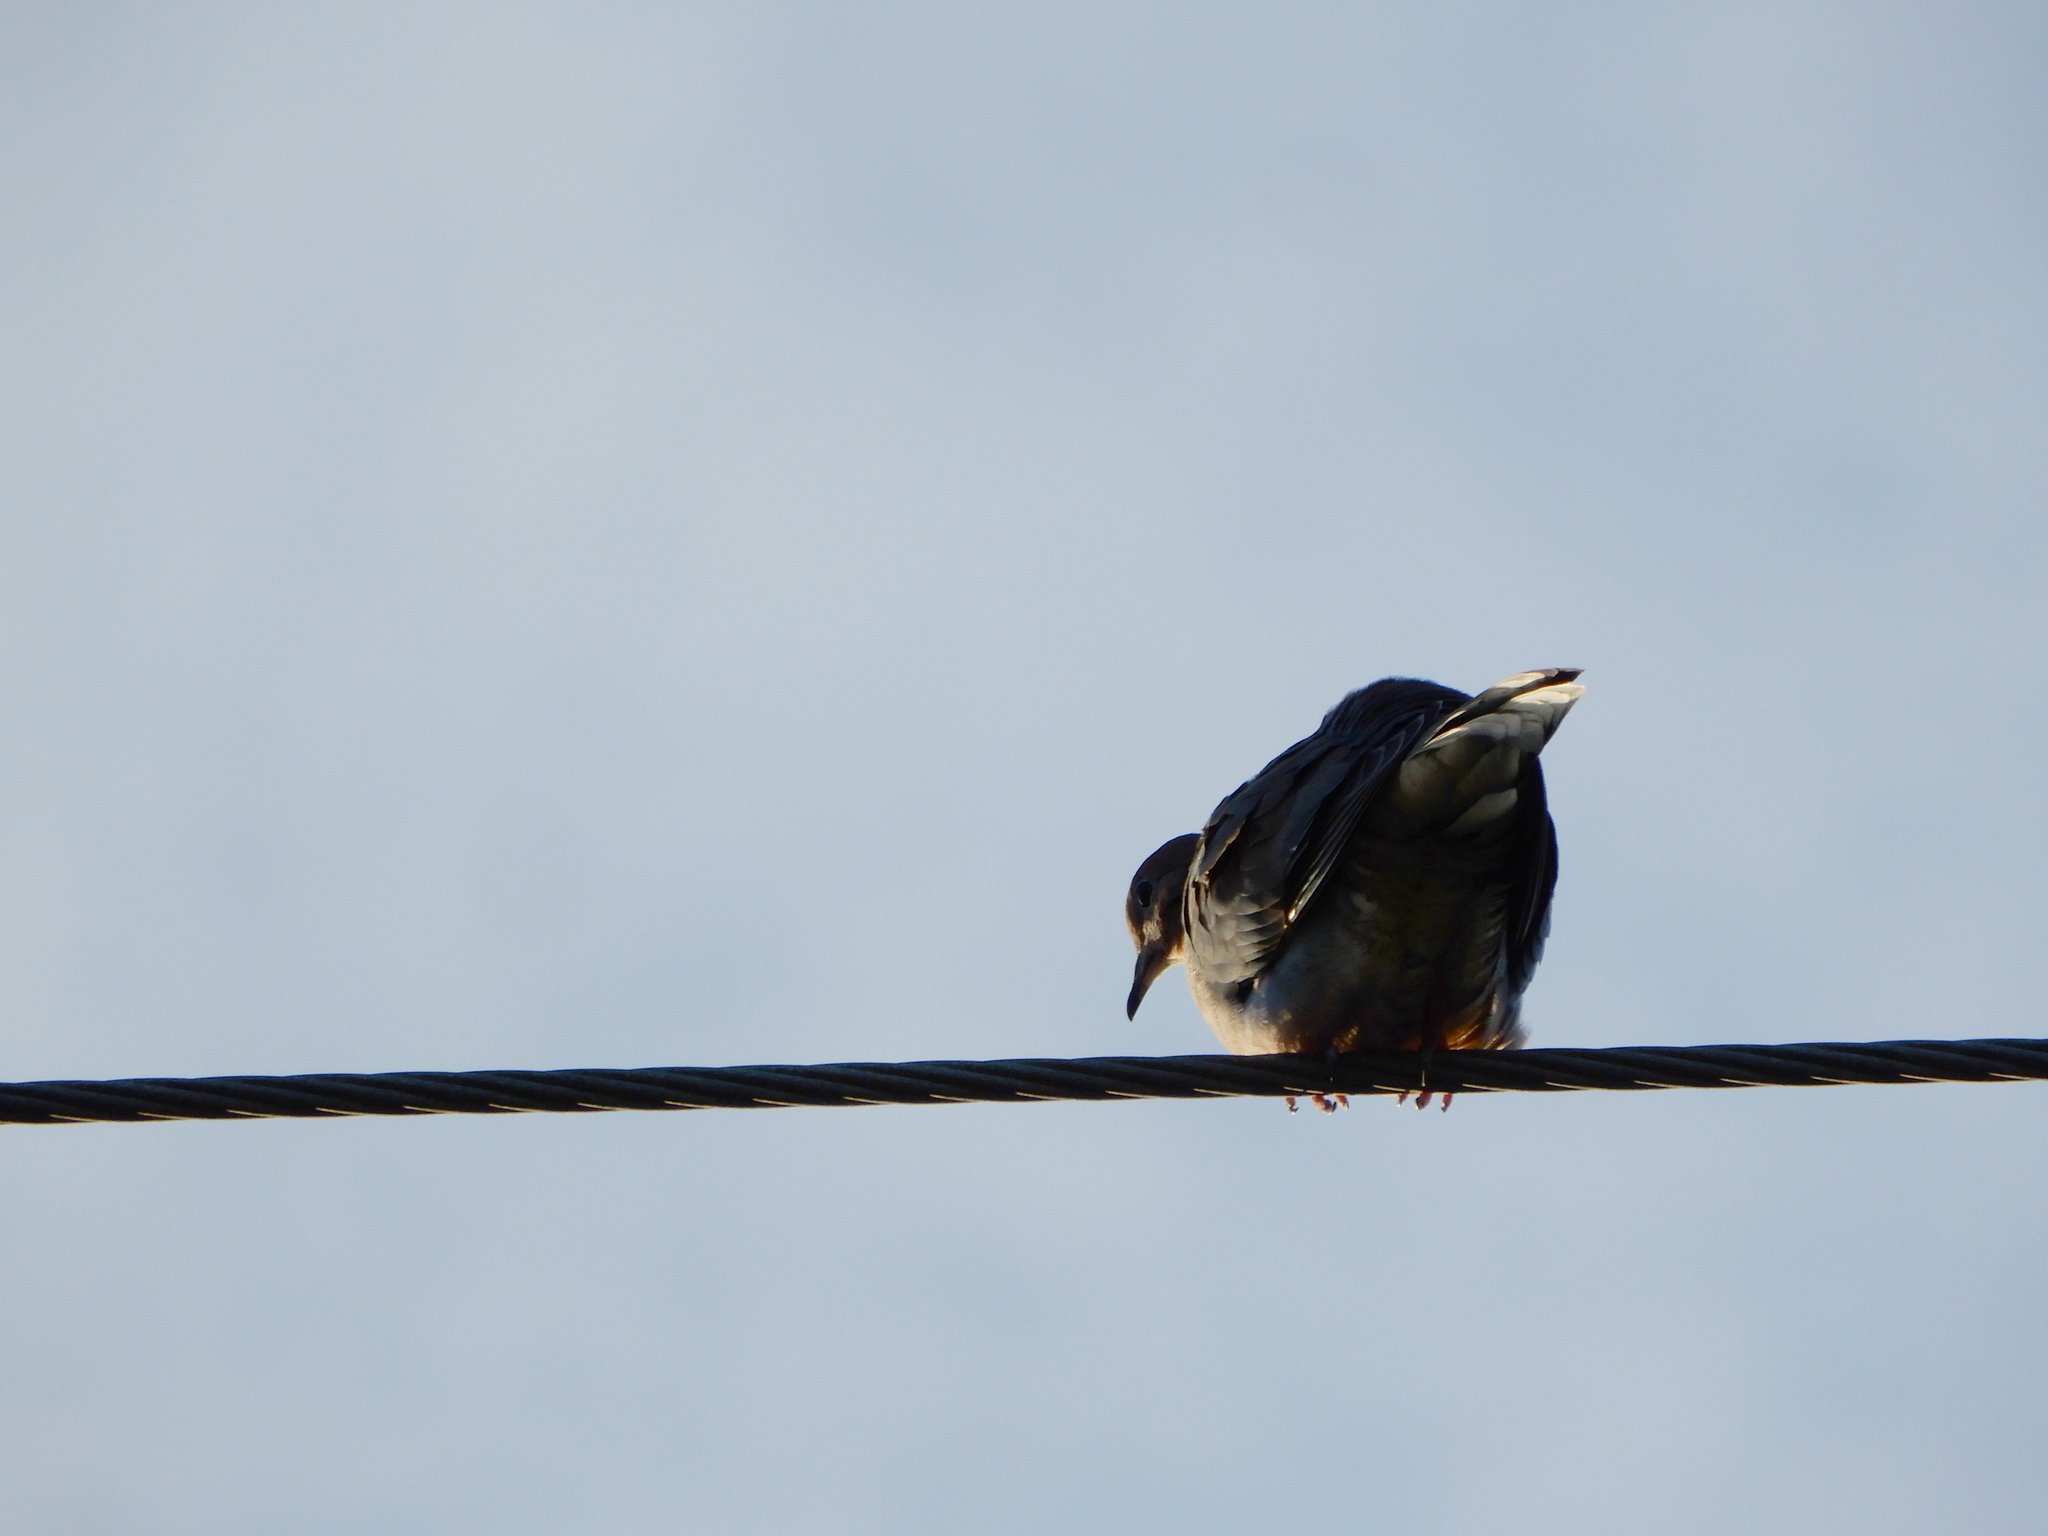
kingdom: Animalia
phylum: Chordata
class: Aves
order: Columbiformes
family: Columbidae
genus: Zenaida
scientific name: Zenaida macroura
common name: Mourning dove
